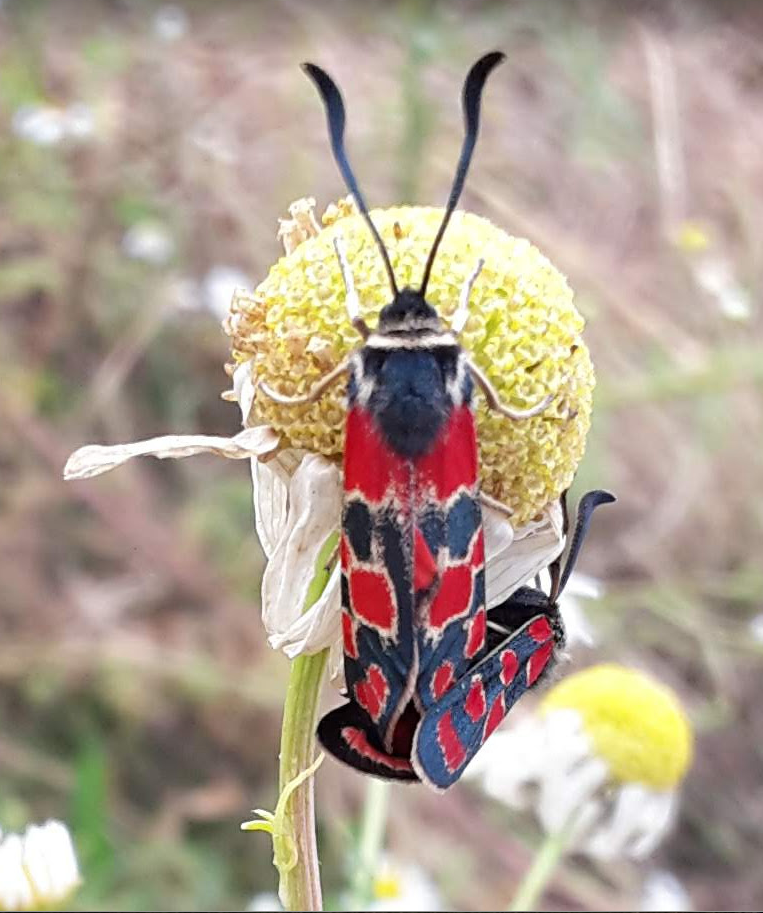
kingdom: Animalia
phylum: Arthropoda
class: Insecta
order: Lepidoptera
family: Zygaenidae
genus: Zygaena
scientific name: Zygaena carniolica
